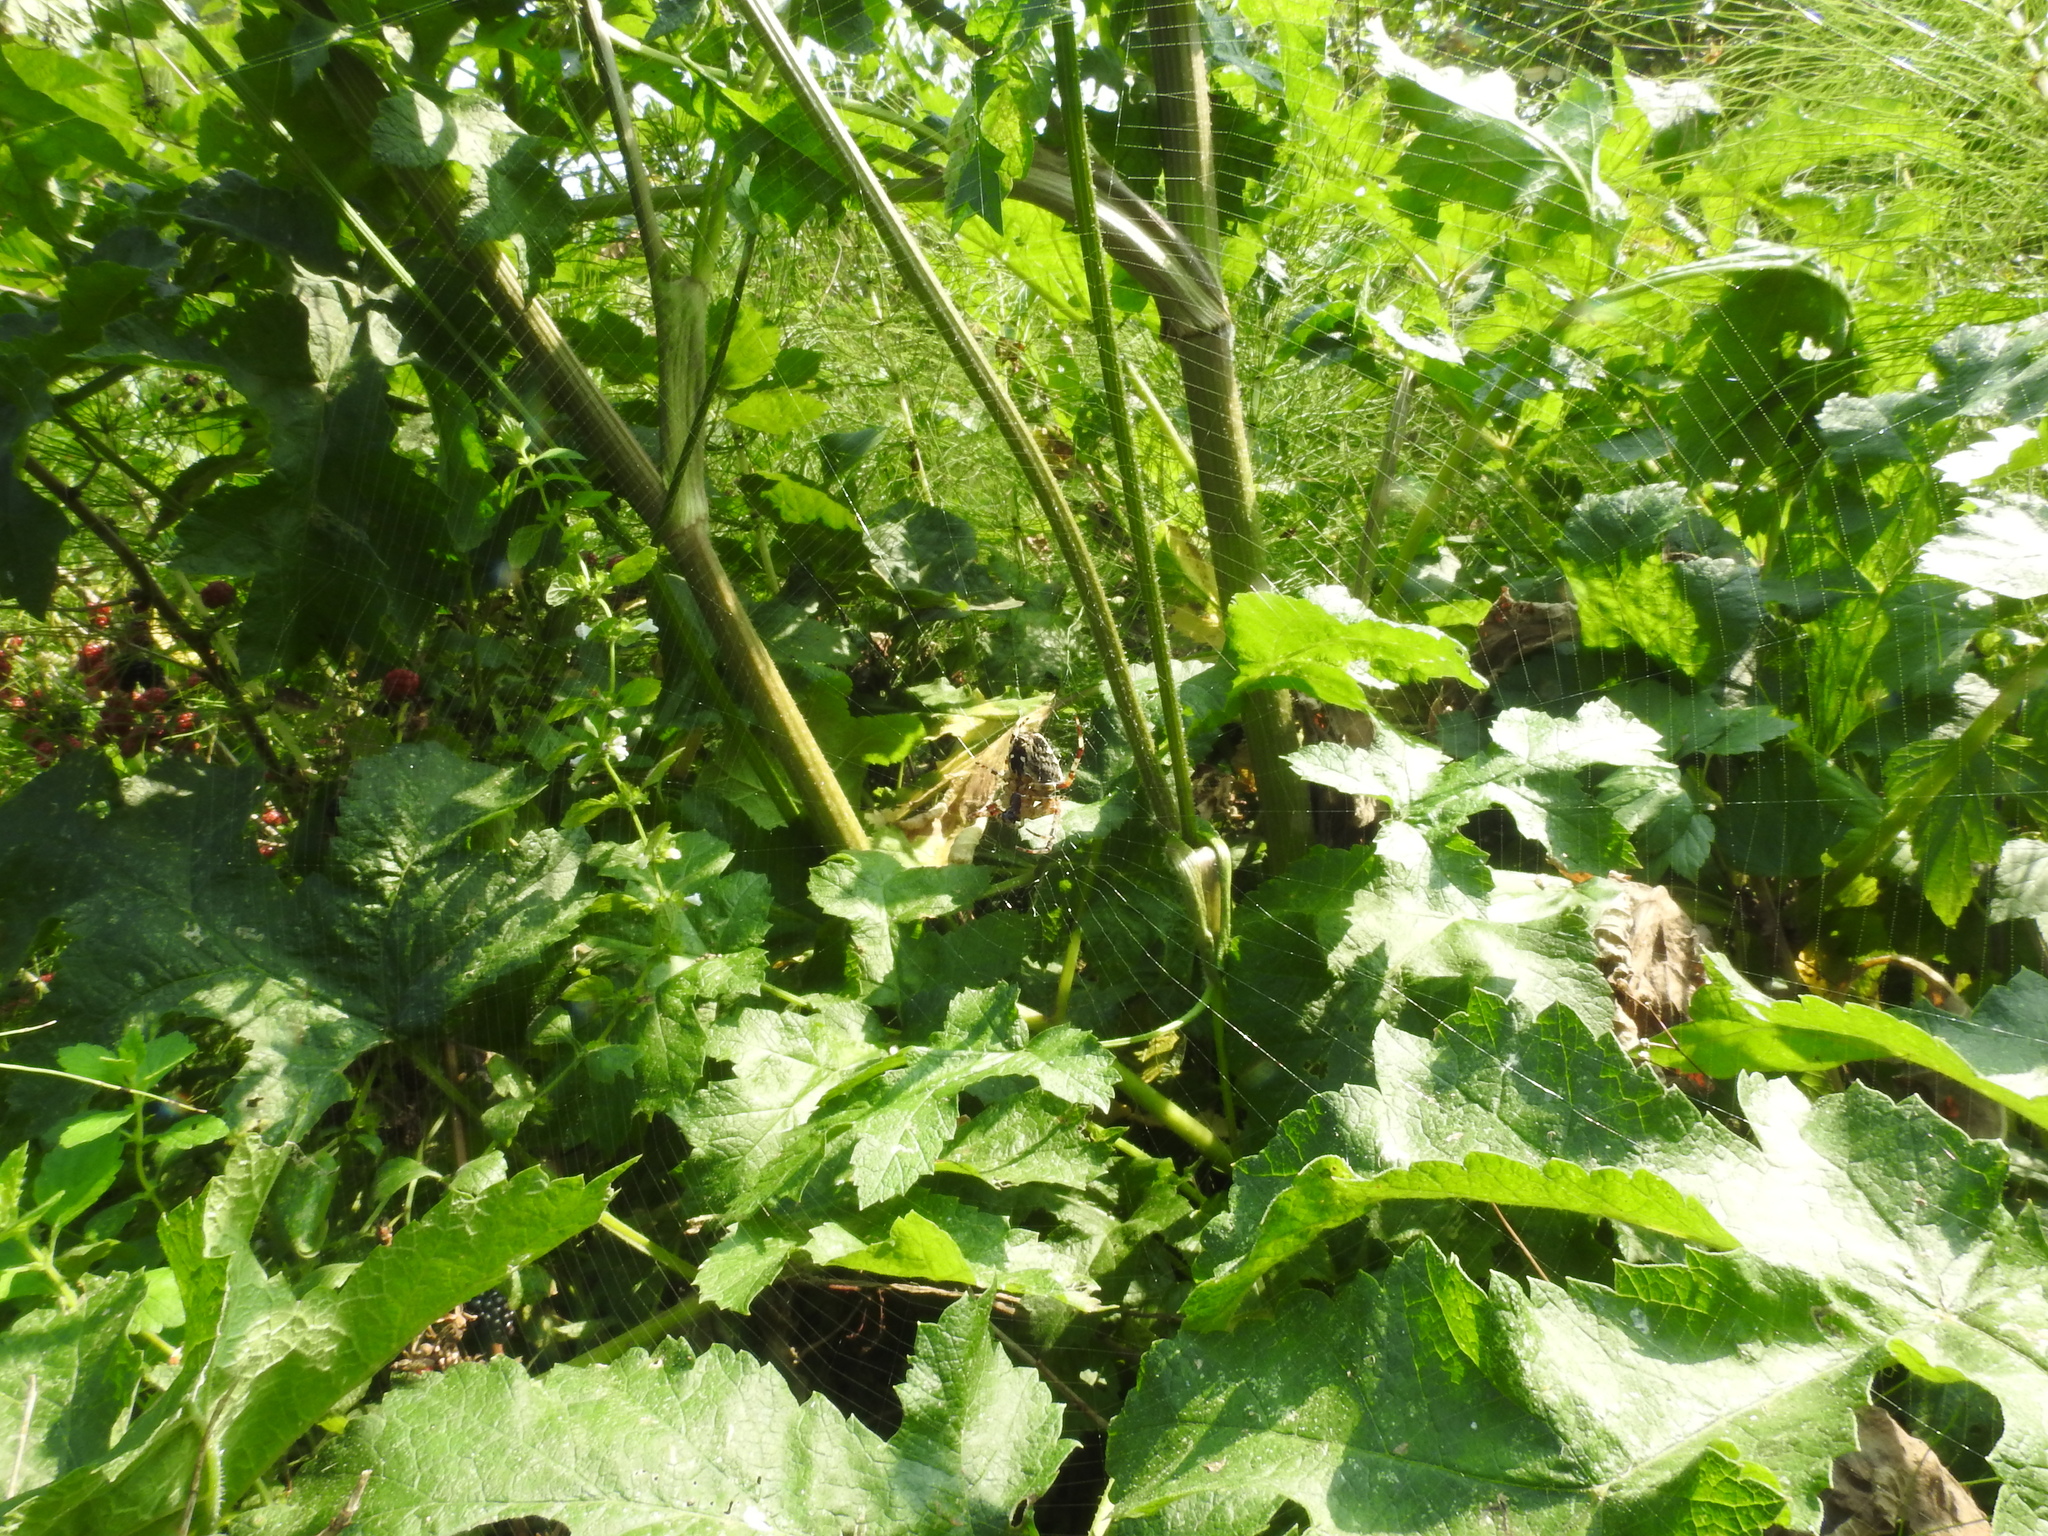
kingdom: Plantae
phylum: Tracheophyta
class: Magnoliopsida
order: Apiales
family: Apiaceae
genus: Heracleum
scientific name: Heracleum sphondylium
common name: Hogweed
